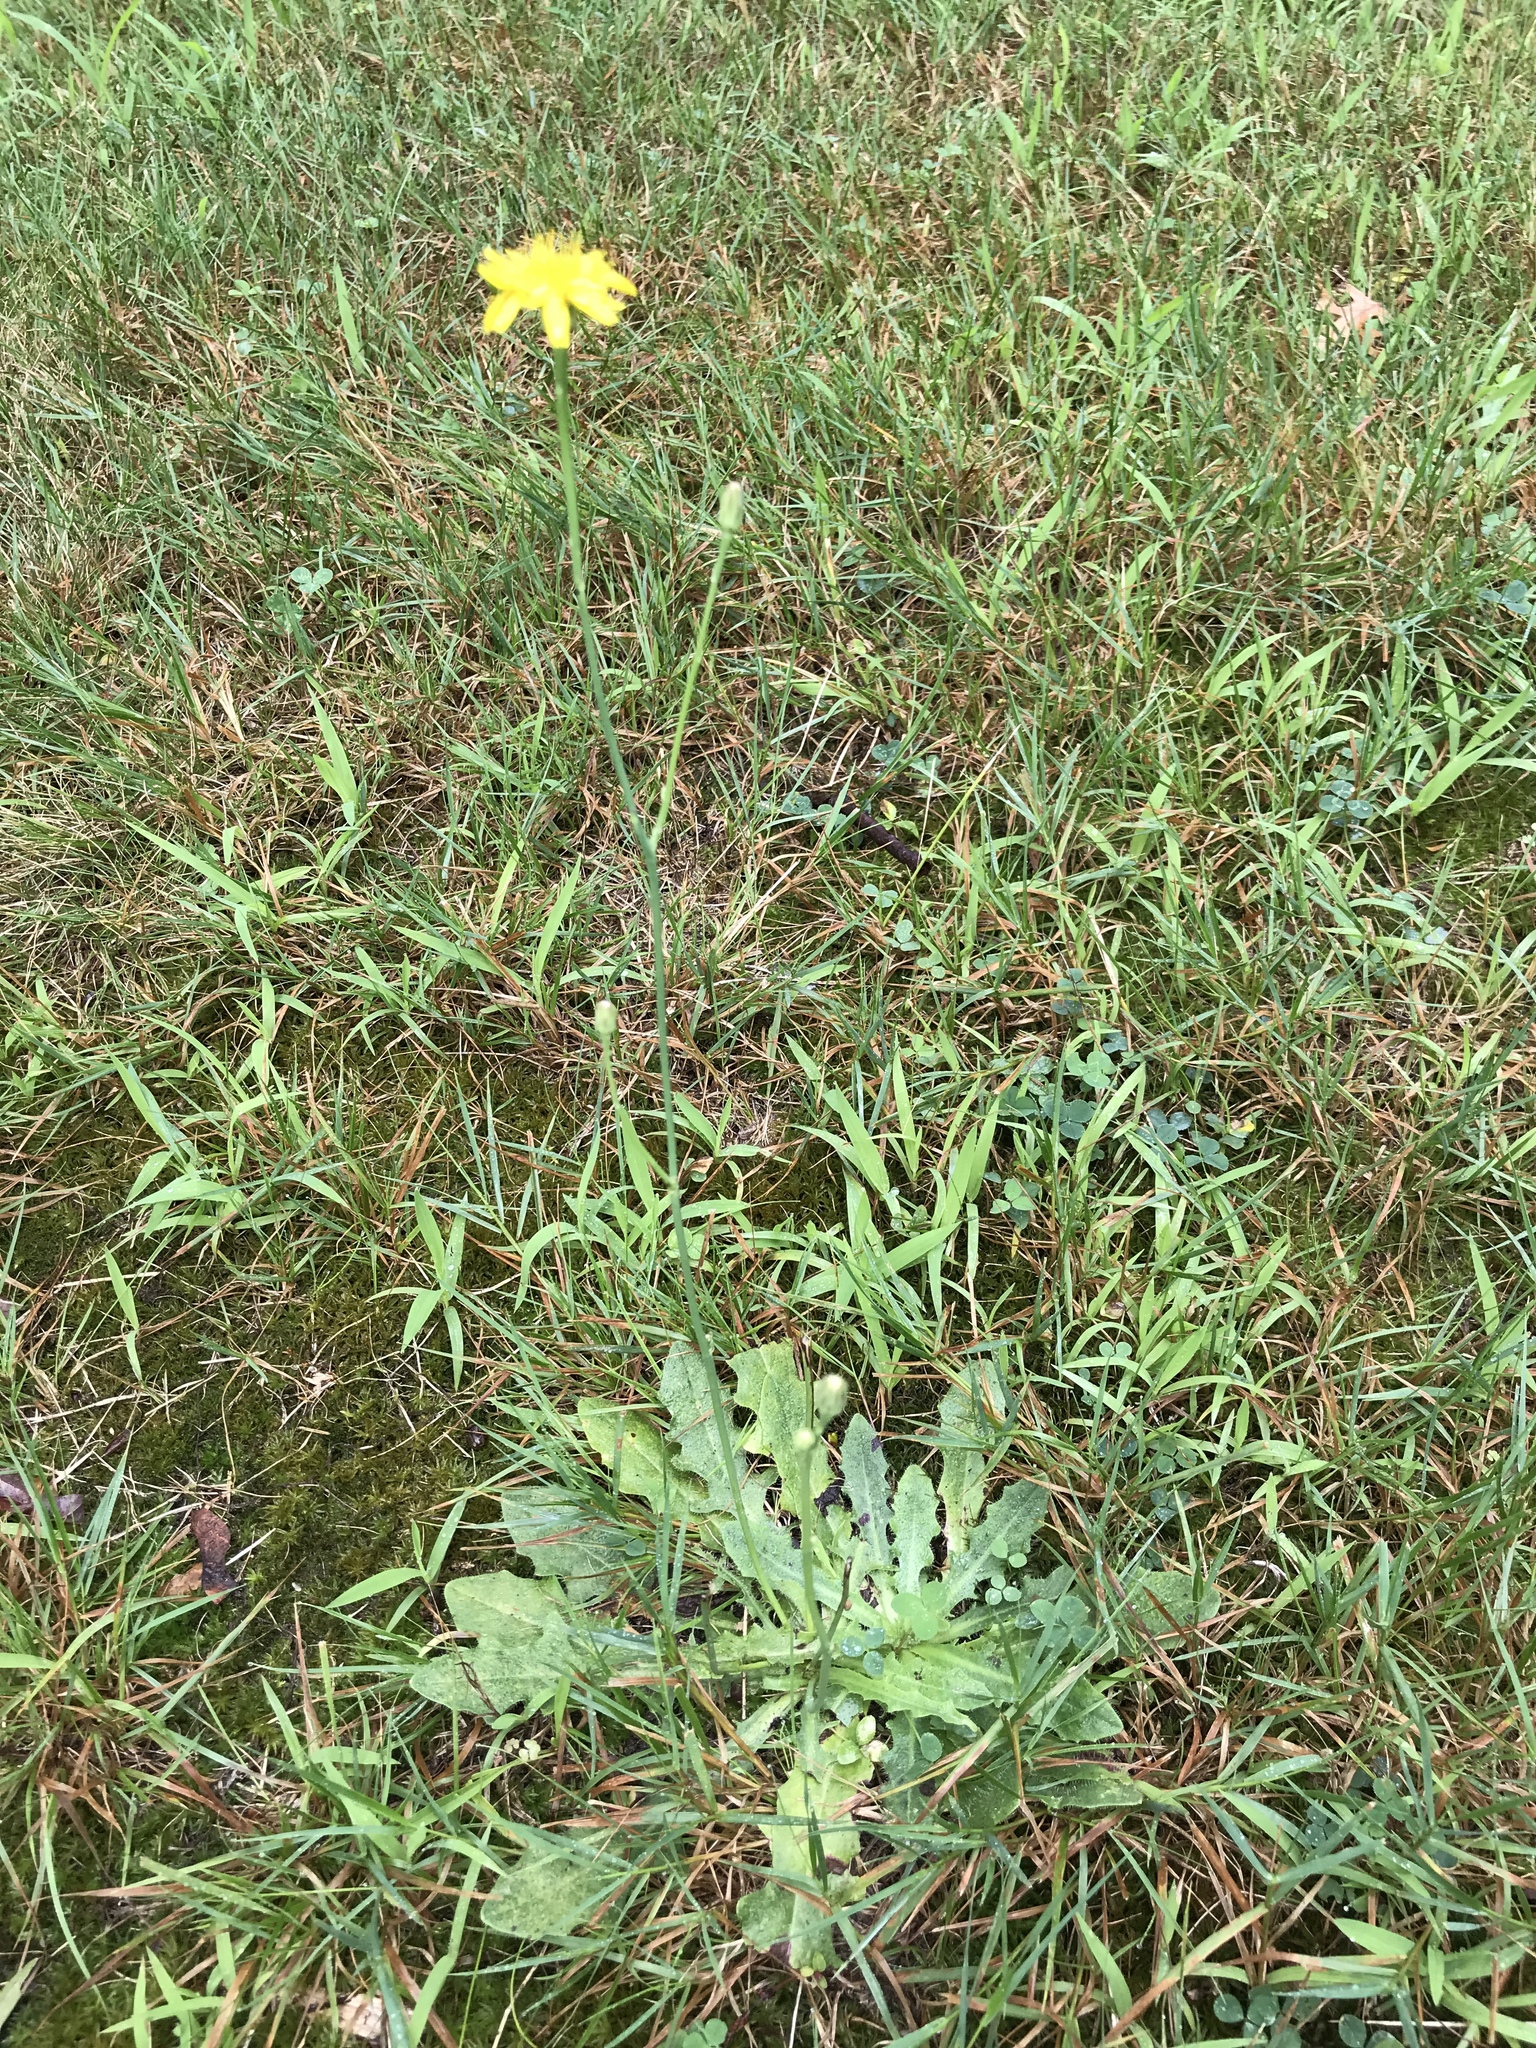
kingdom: Plantae
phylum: Tracheophyta
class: Magnoliopsida
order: Asterales
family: Asteraceae
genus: Hypochaeris
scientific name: Hypochaeris radicata
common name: Flatweed
